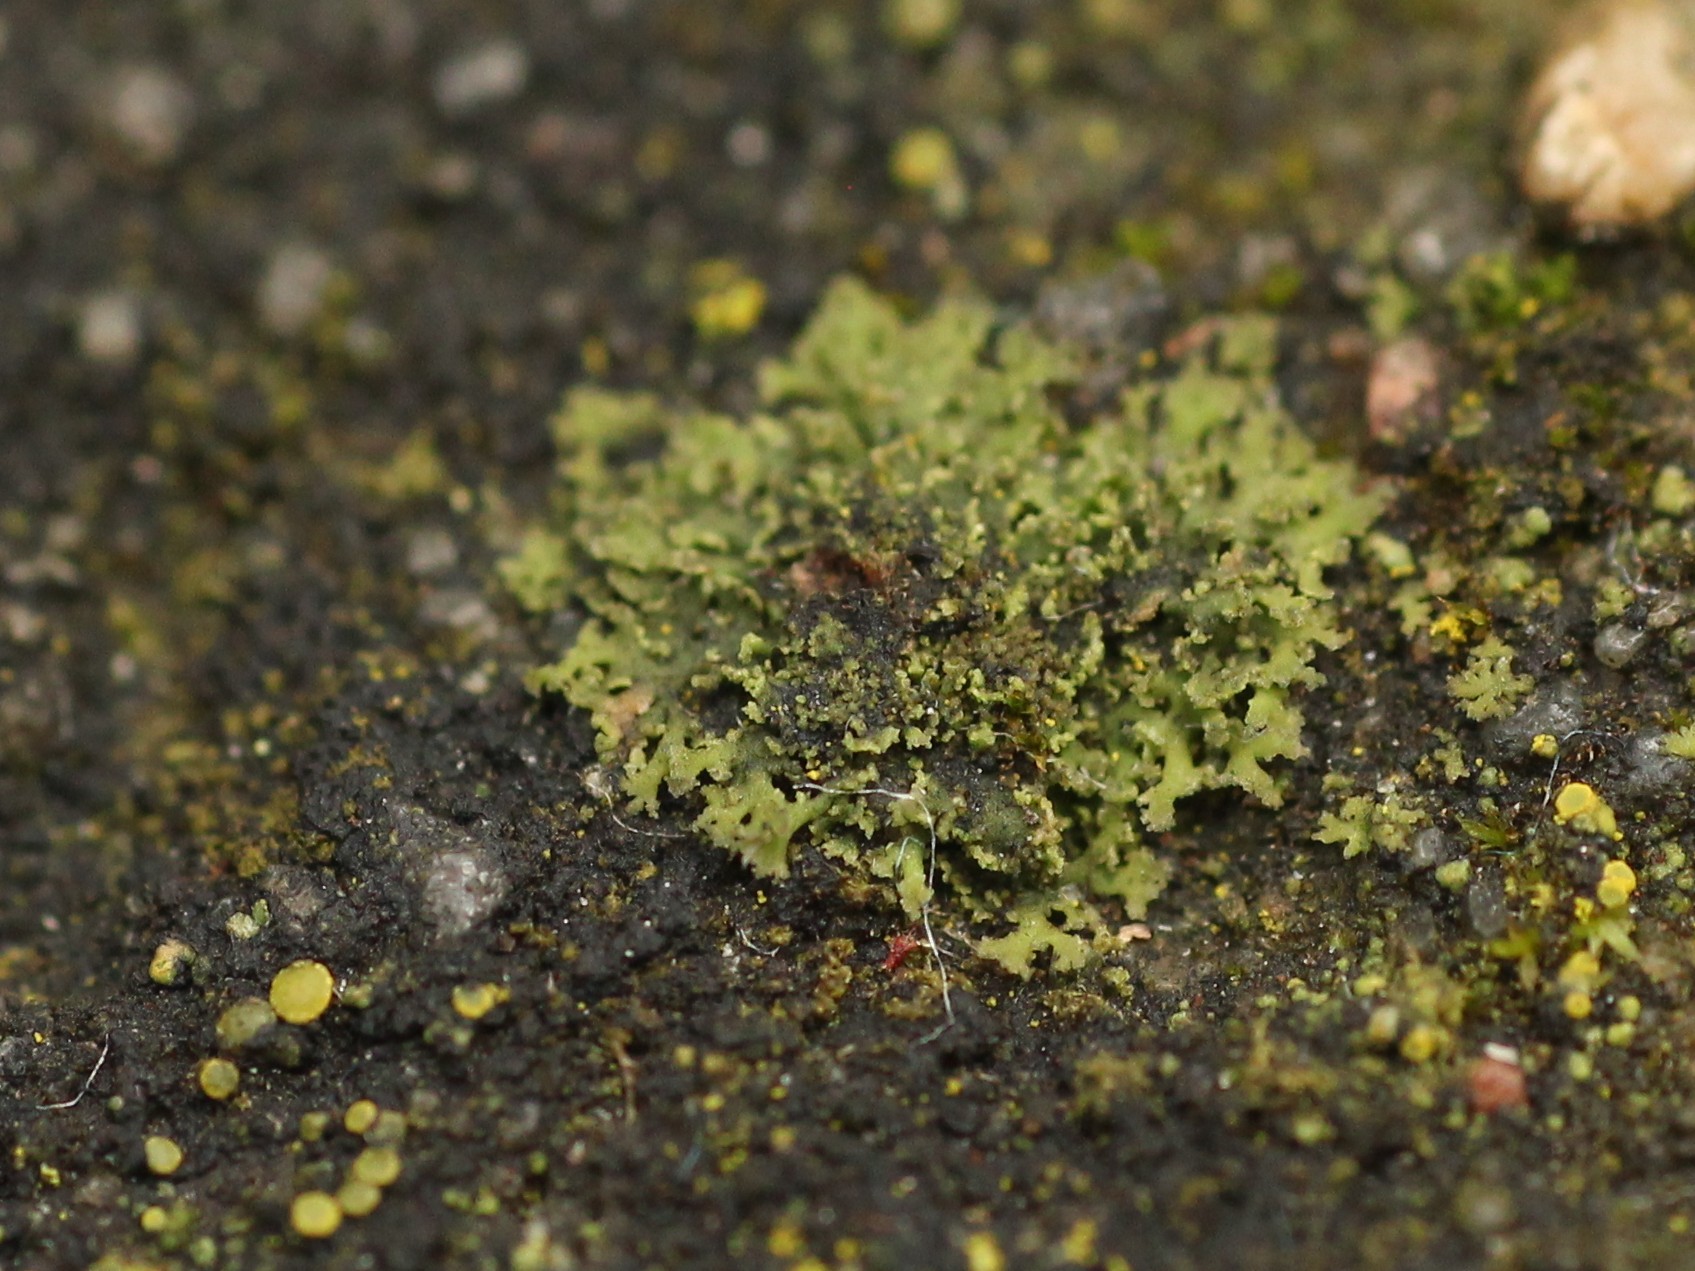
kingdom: Fungi
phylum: Ascomycota
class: Lecanoromycetes
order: Caliciales
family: Physciaceae
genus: Physciella
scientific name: Physciella nigricans
